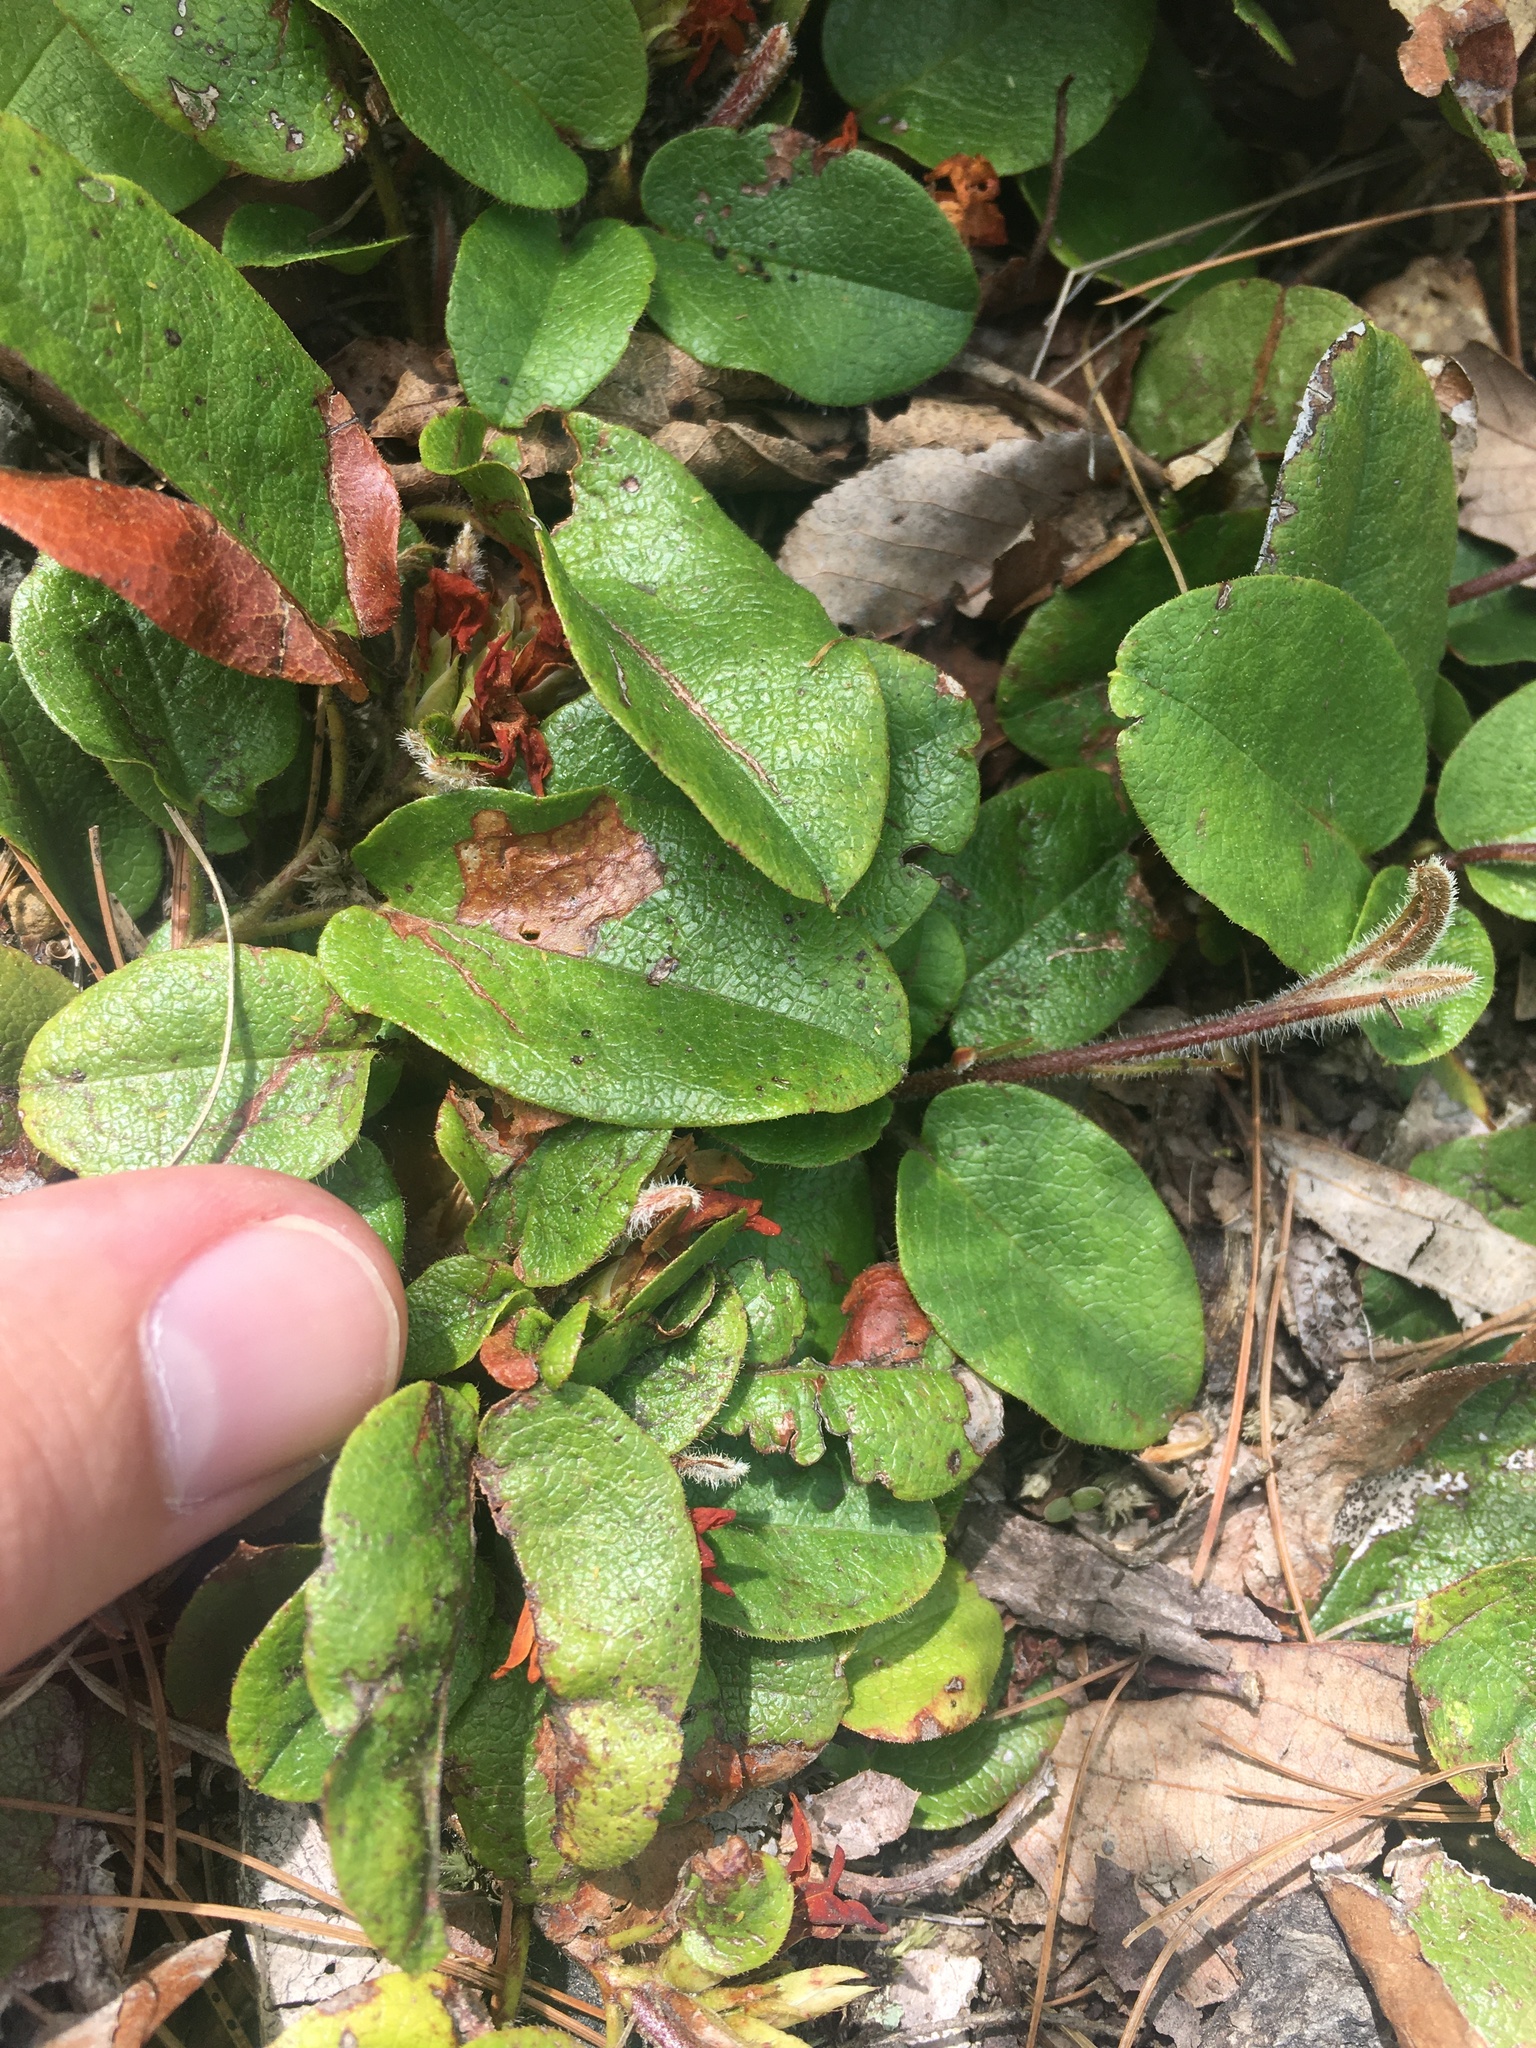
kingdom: Plantae
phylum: Tracheophyta
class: Magnoliopsida
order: Ericales
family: Ericaceae
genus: Epigaea
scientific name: Epigaea repens
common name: Gravelroot
